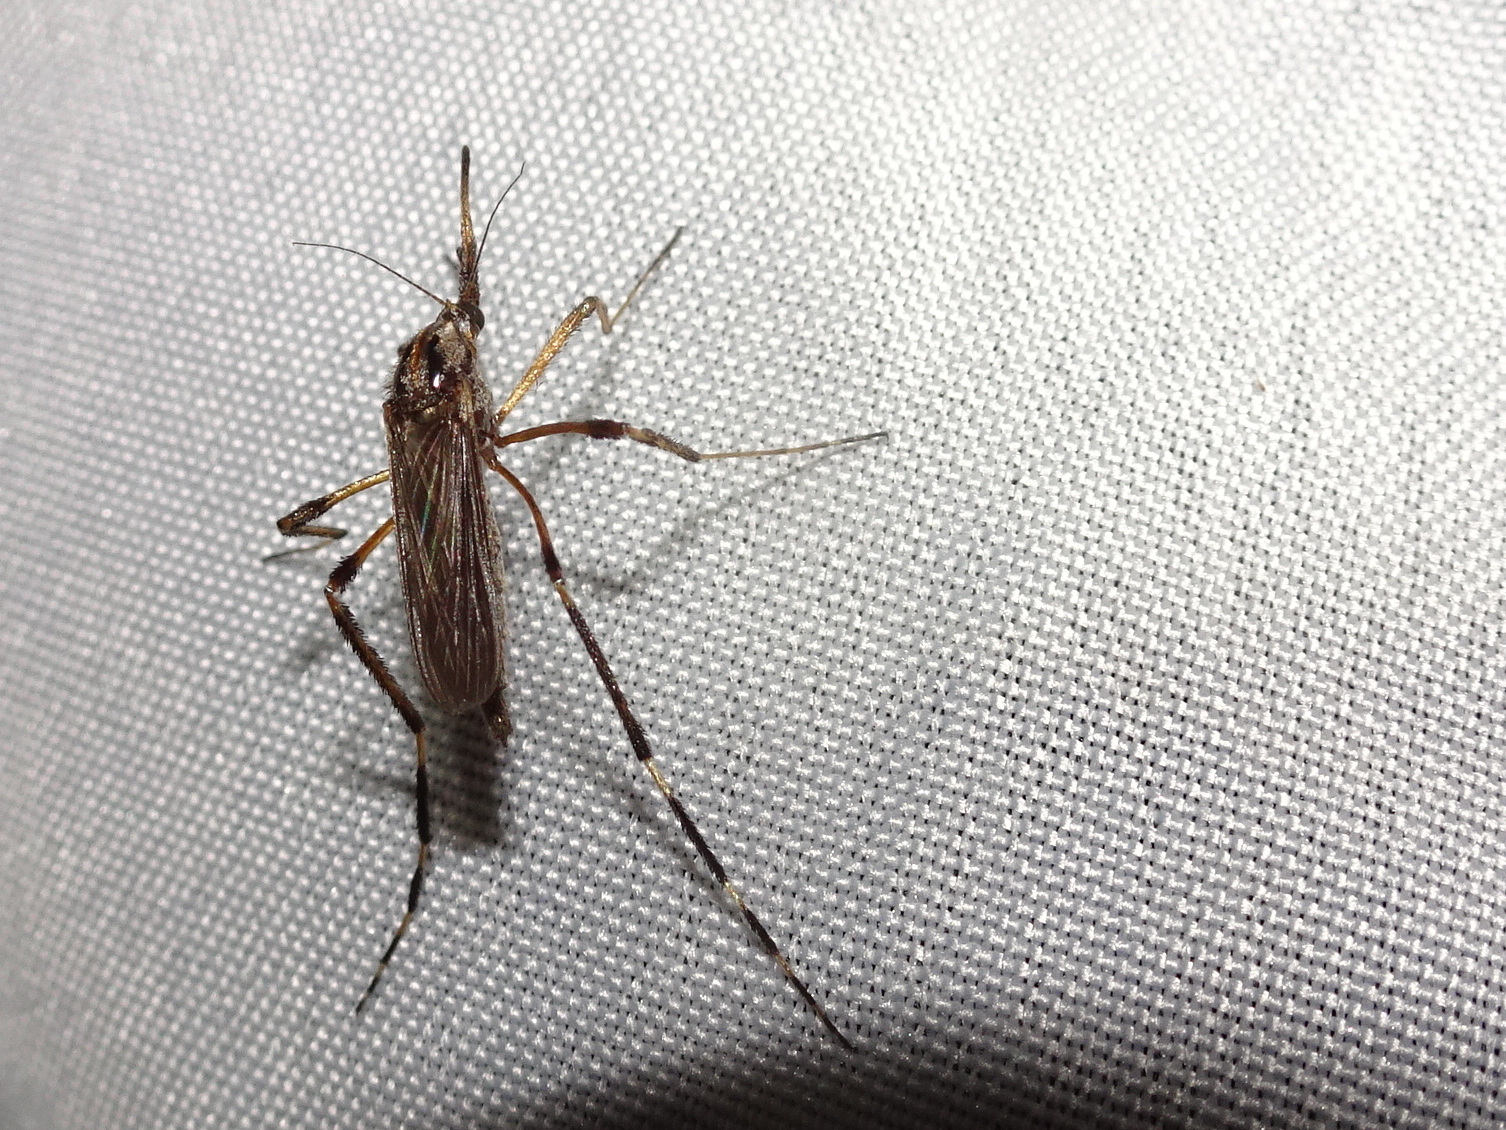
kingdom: Animalia
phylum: Arthropoda
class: Insecta
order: Diptera
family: Culicidae
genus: Psorophora
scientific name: Psorophora ciliata
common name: Gallinipper
